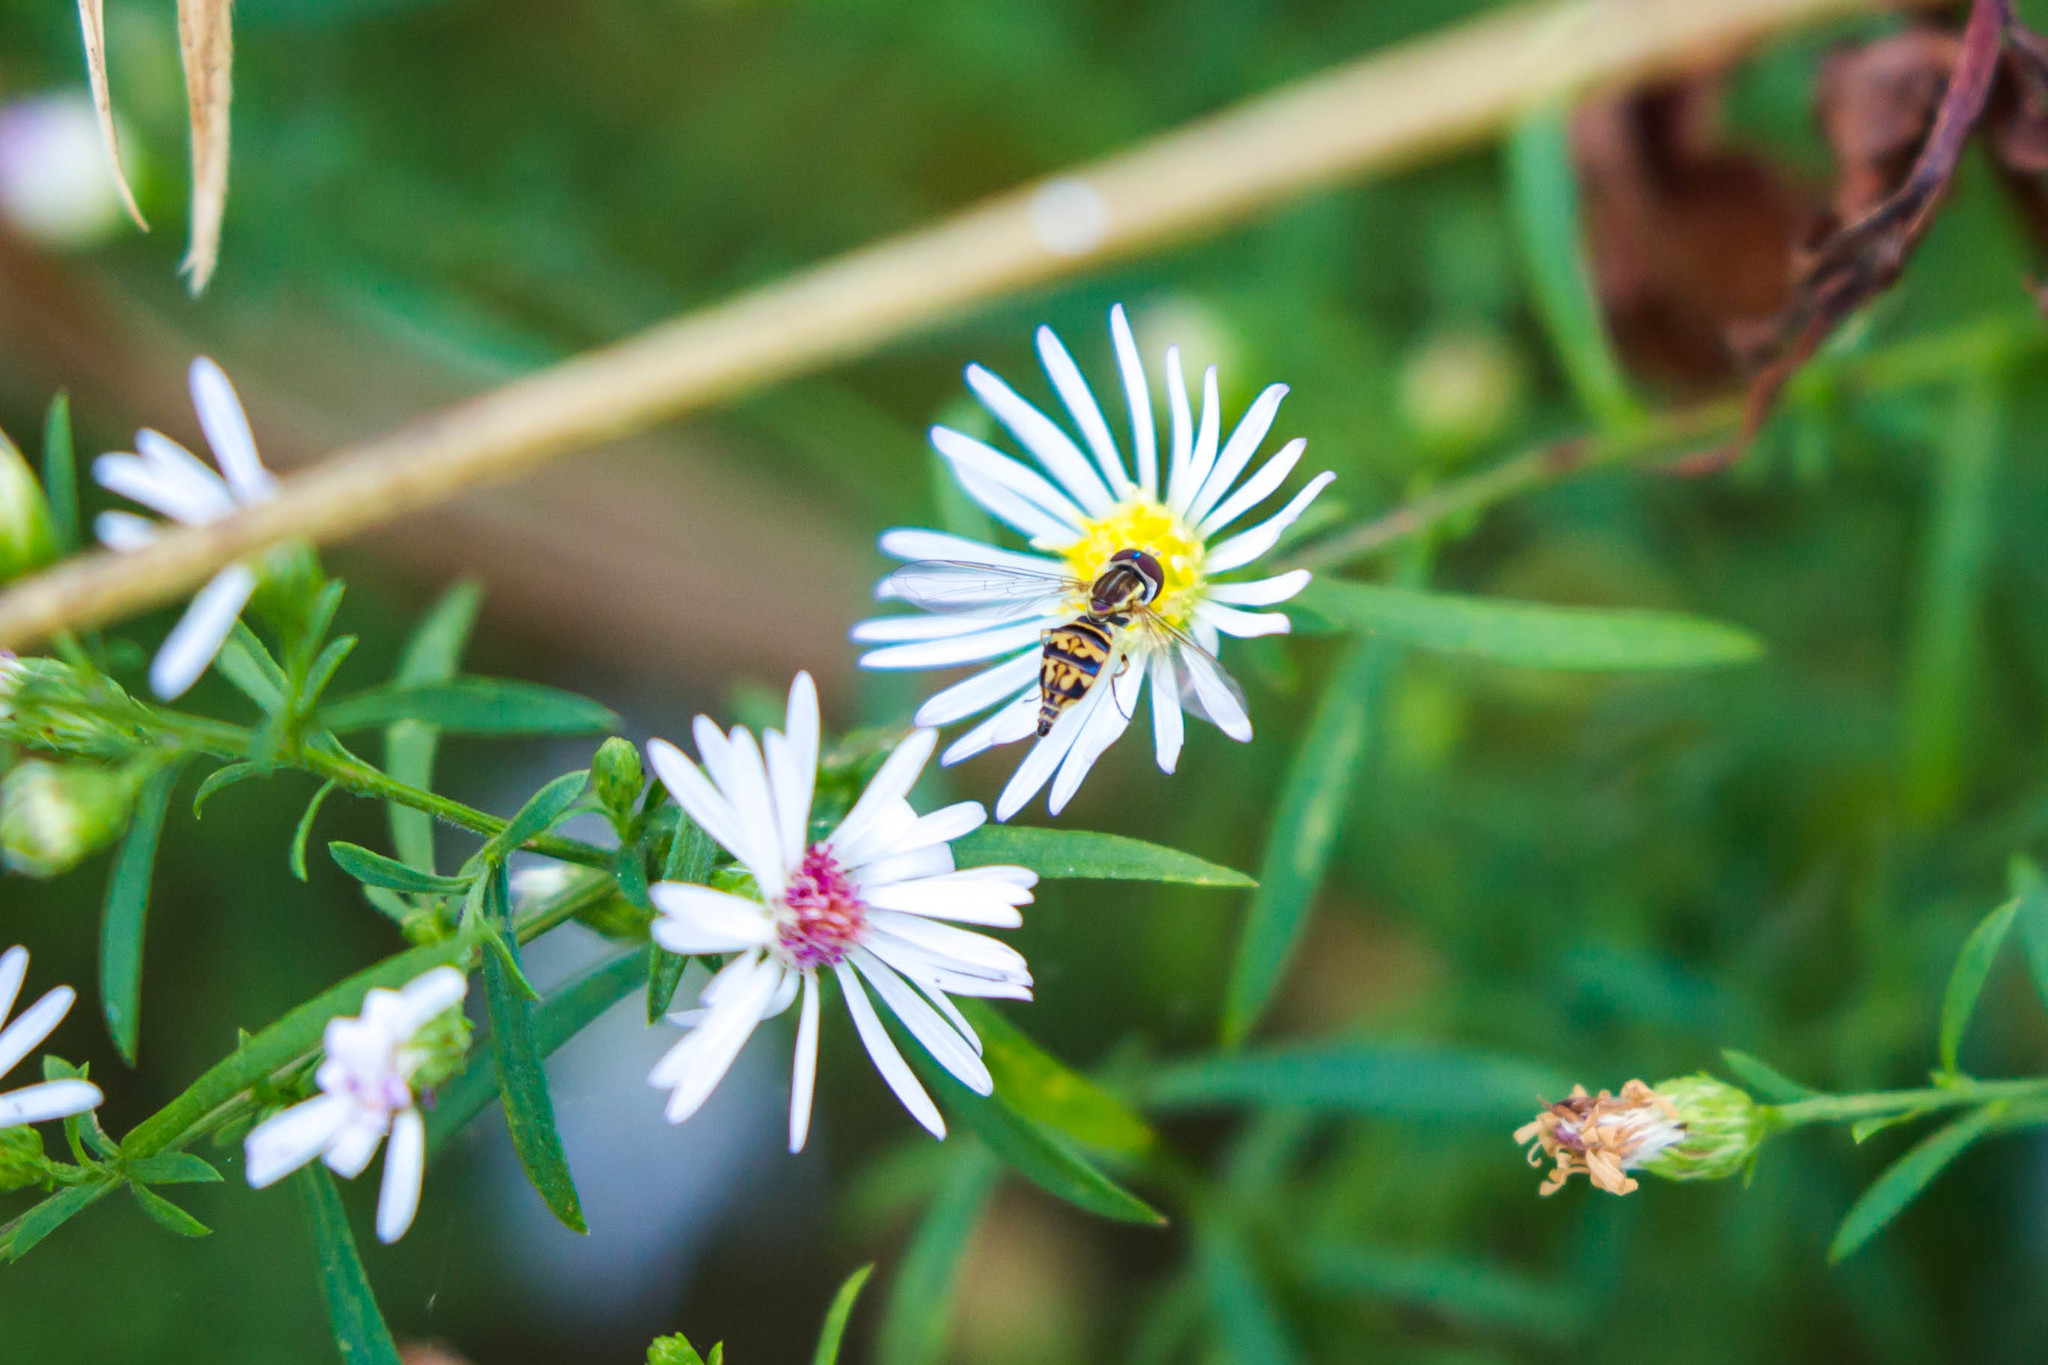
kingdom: Animalia
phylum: Arthropoda
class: Insecta
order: Diptera
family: Syrphidae
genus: Toxomerus
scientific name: Toxomerus geminatus
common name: Eastern calligrapher
